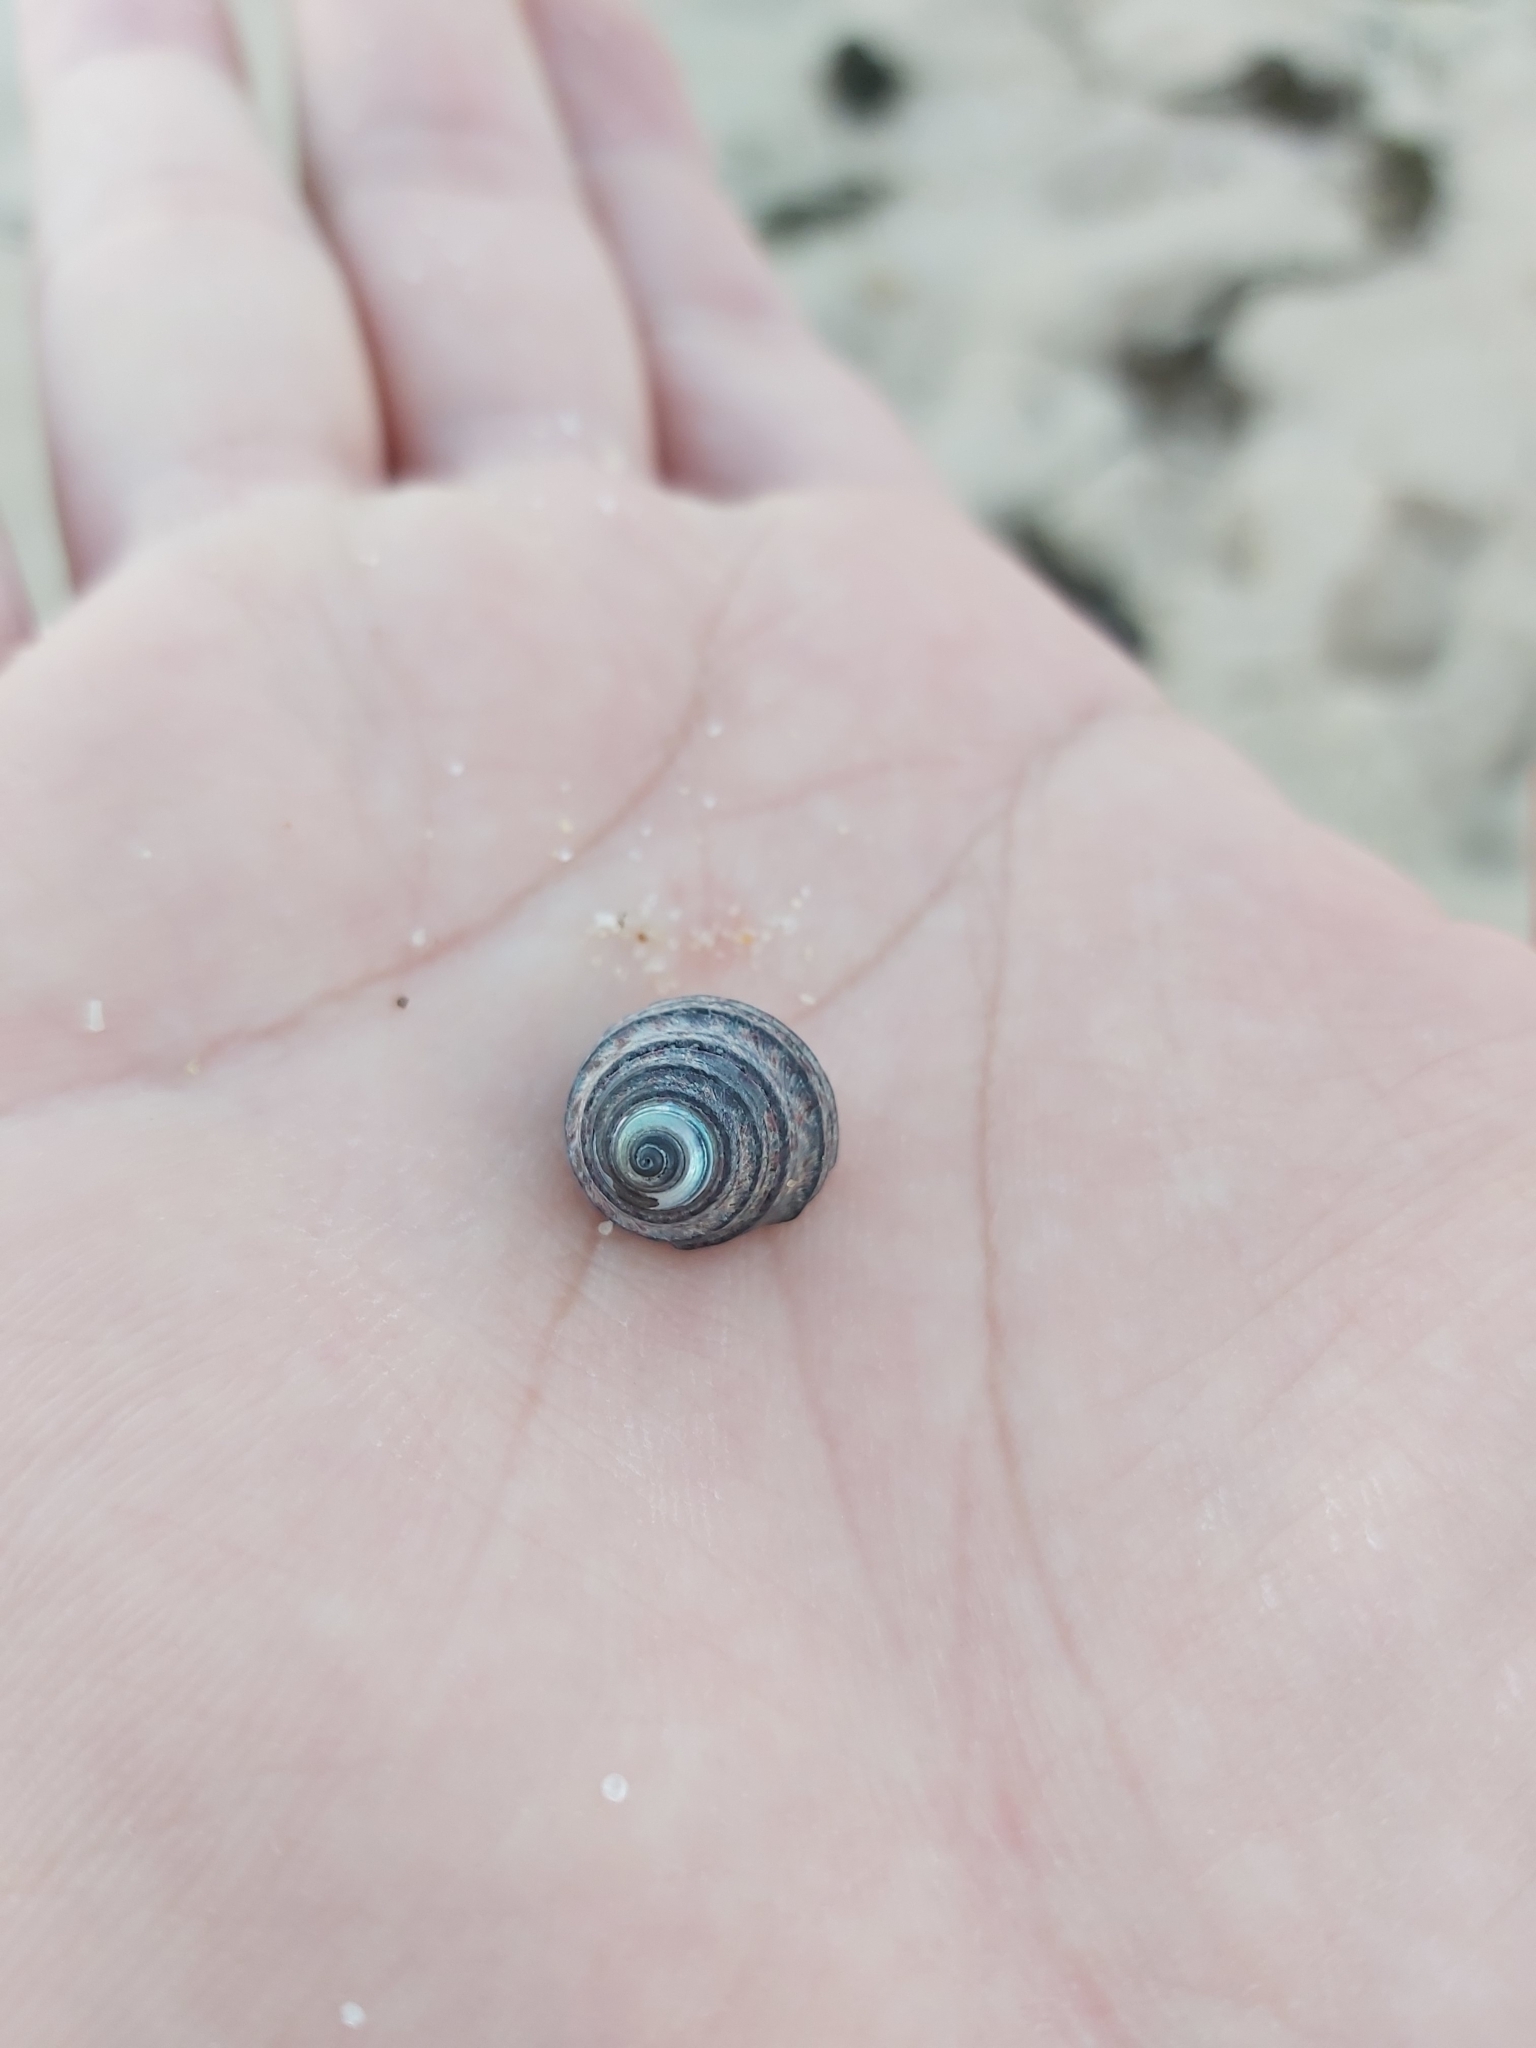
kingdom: Animalia
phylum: Mollusca
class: Gastropoda
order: Trochida
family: Trochidae
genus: Austrocochlea
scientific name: Austrocochlea constricta
